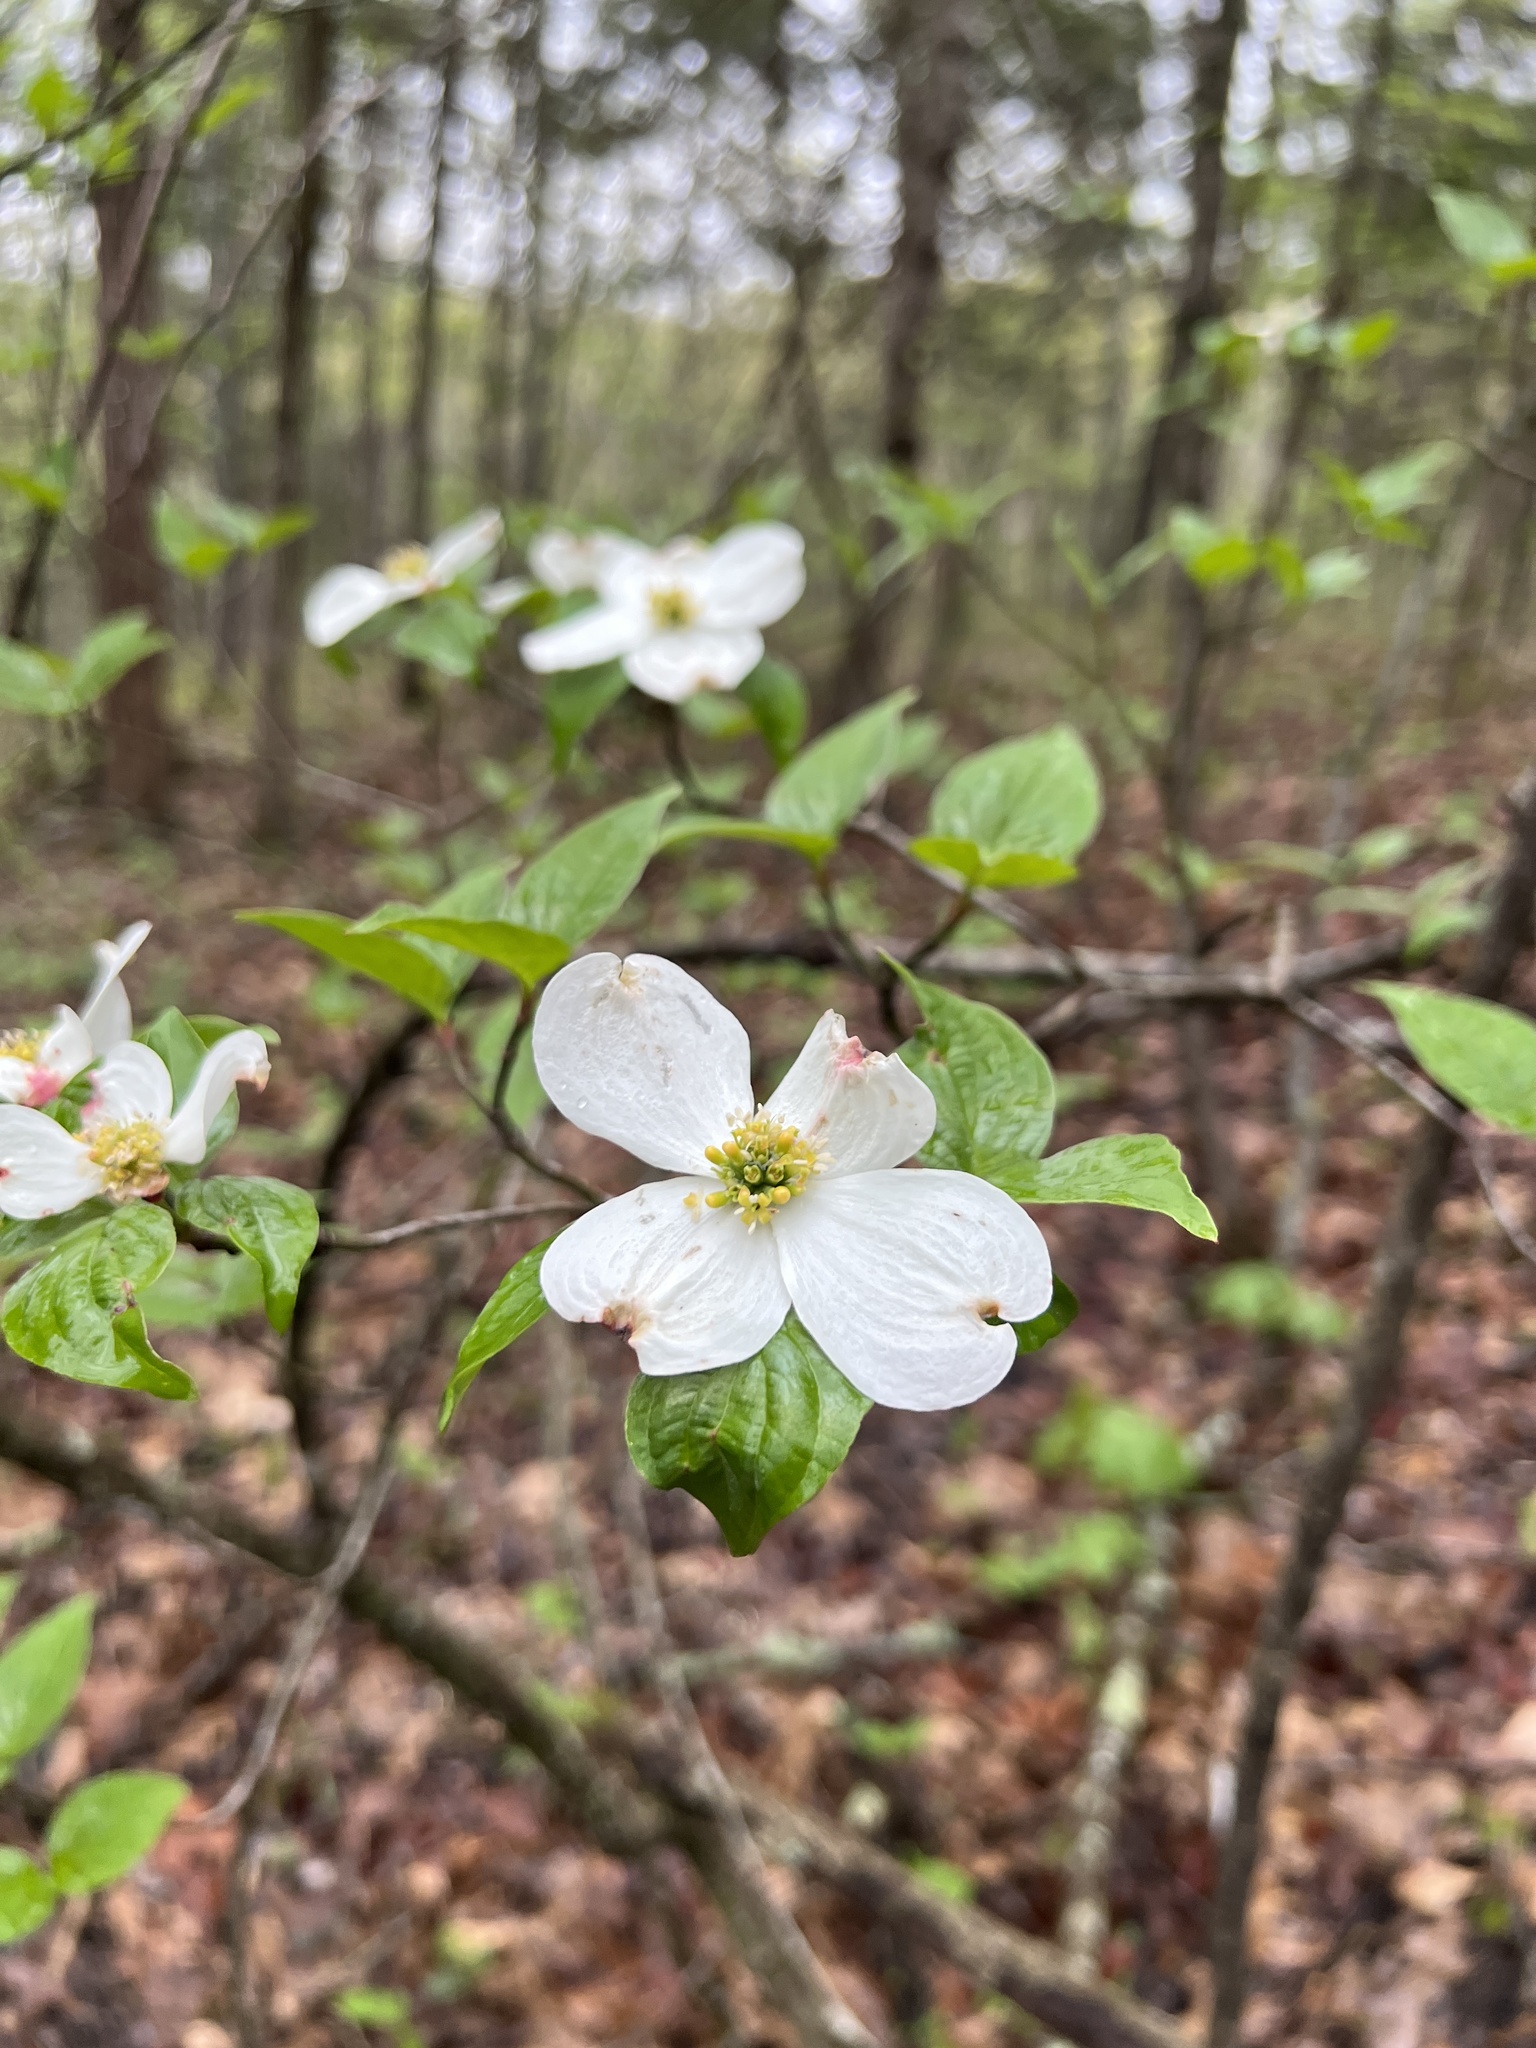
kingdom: Plantae
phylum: Tracheophyta
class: Magnoliopsida
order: Cornales
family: Cornaceae
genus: Cornus
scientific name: Cornus florida
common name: Flowering dogwood
